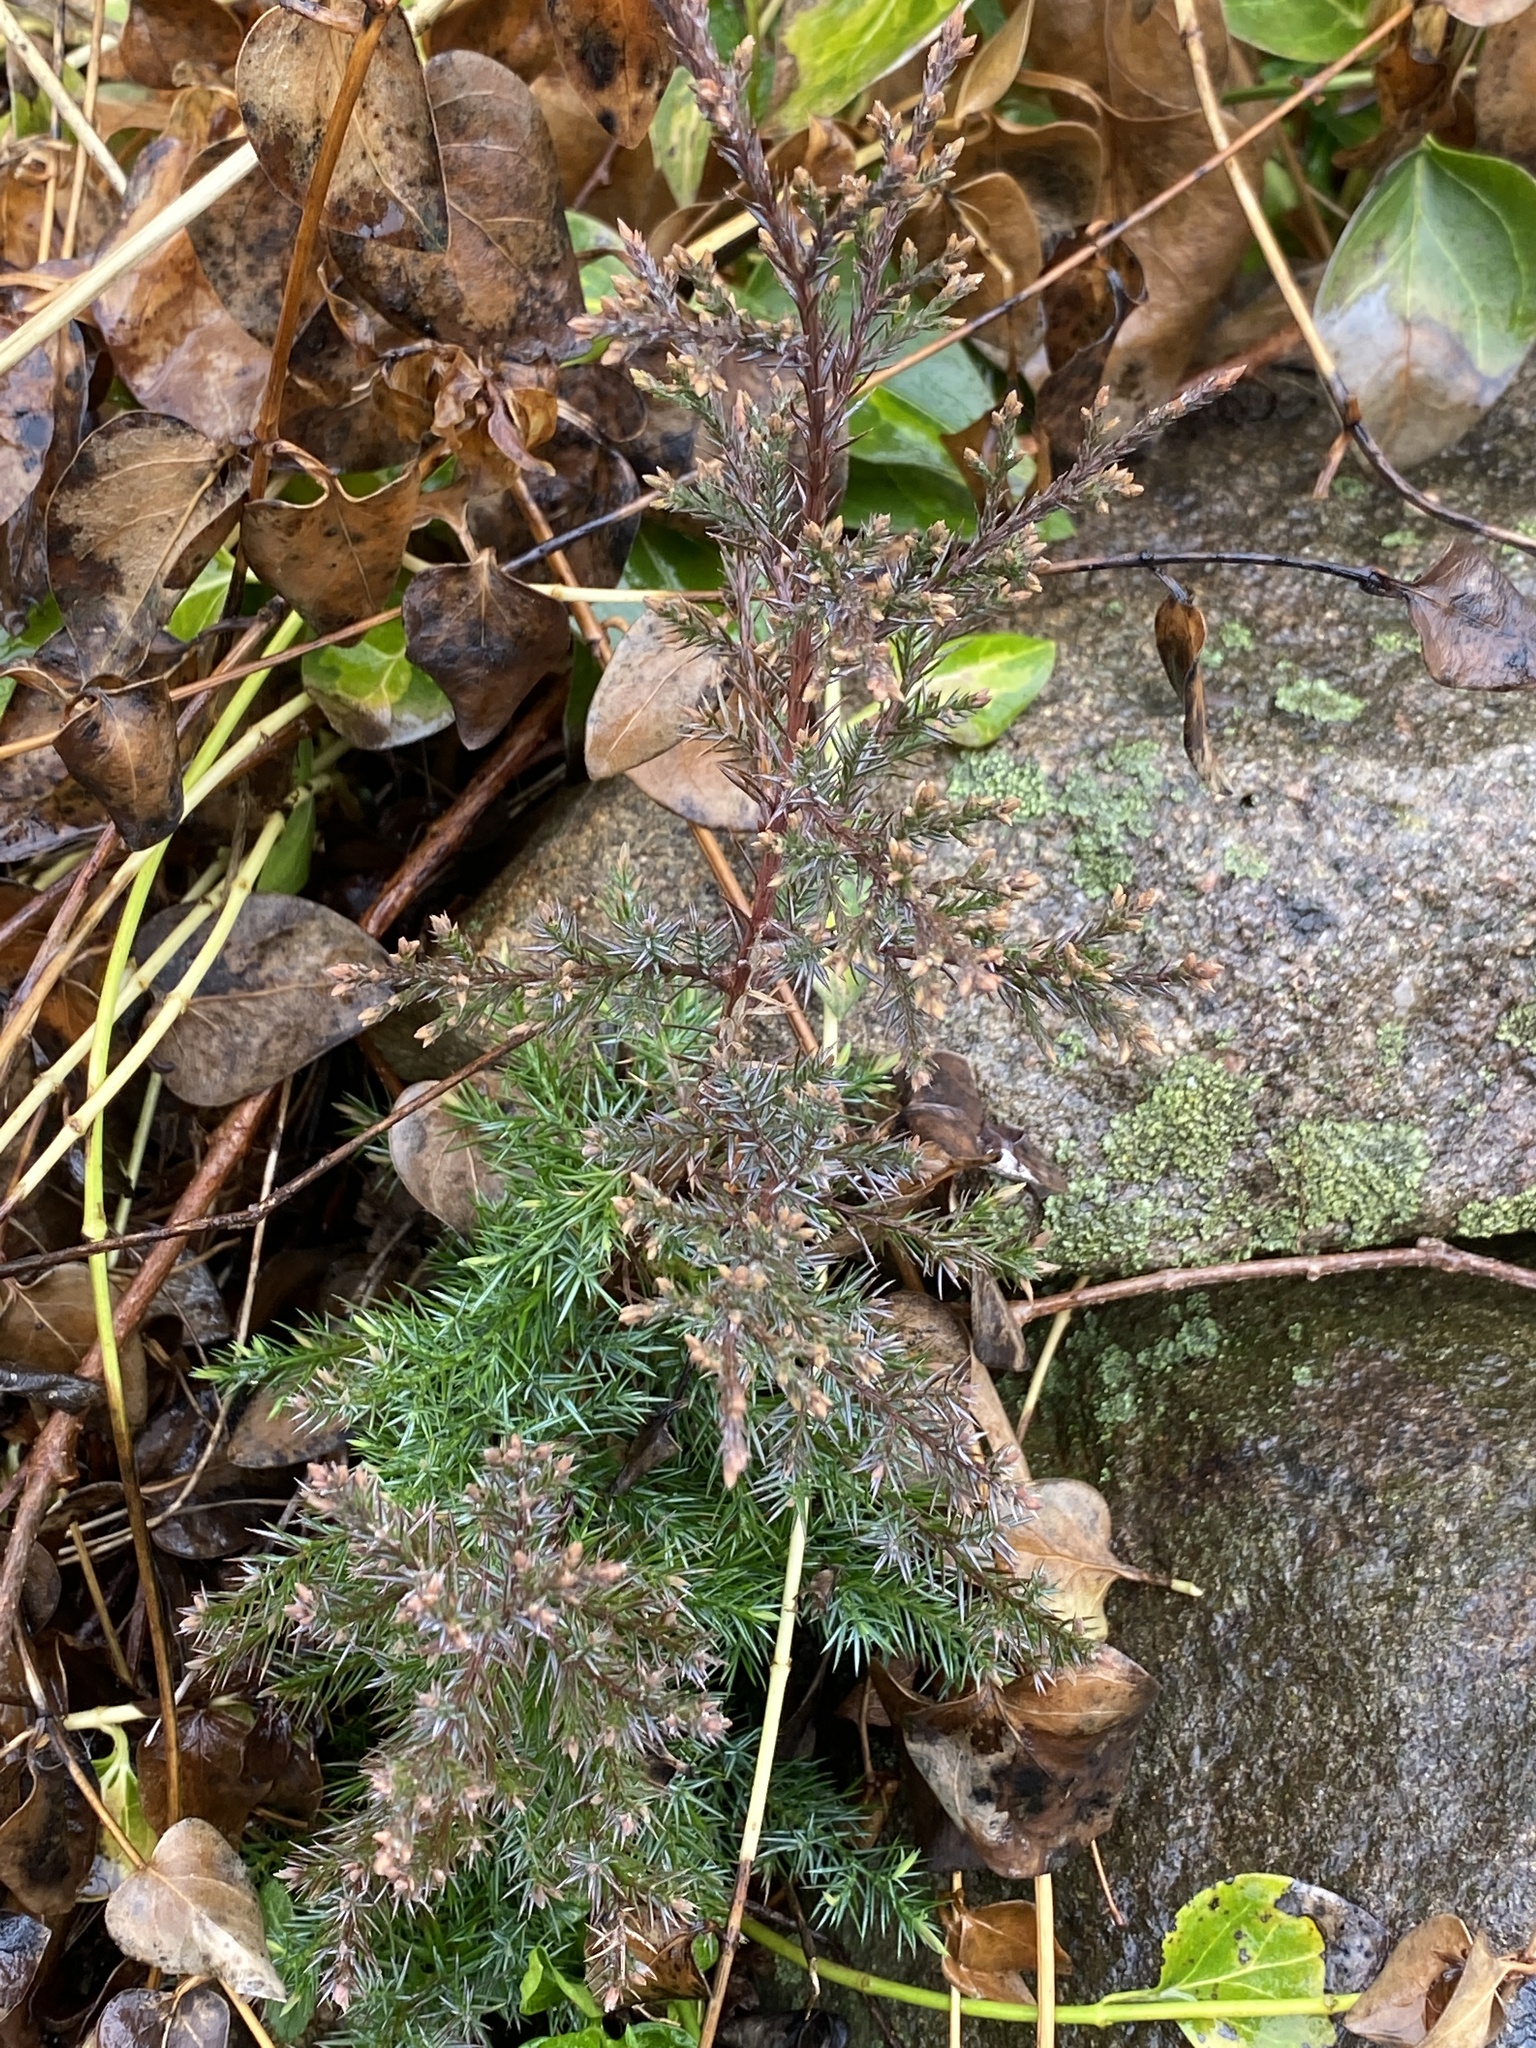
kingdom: Plantae
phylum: Tracheophyta
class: Pinopsida
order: Pinales
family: Cupressaceae
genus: Juniperus
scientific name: Juniperus virginiana
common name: Red juniper
